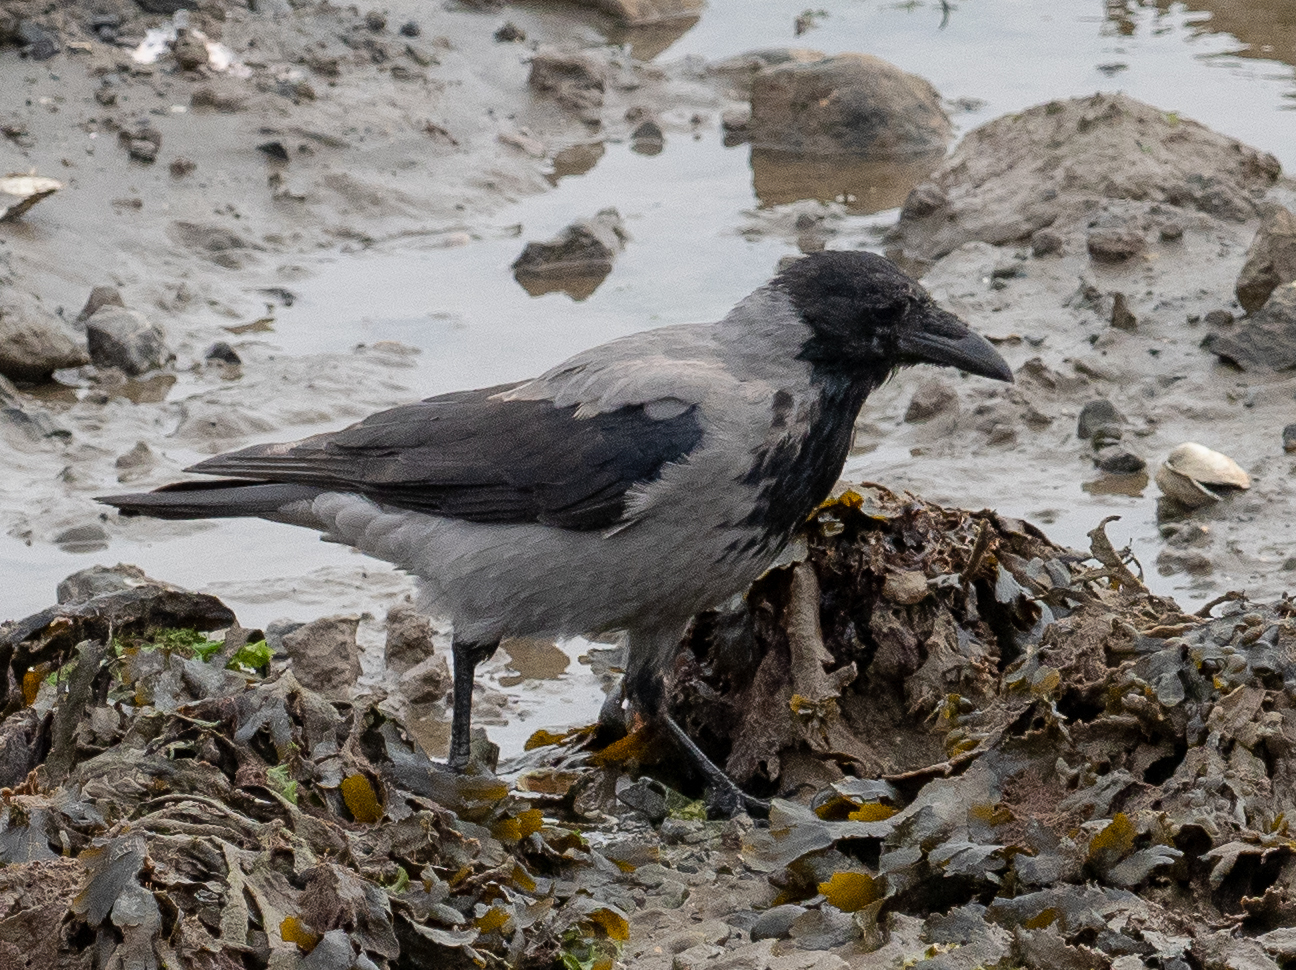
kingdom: Animalia
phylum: Chordata
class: Aves
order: Passeriformes
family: Corvidae
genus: Corvus
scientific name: Corvus cornix
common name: Hooded crow
